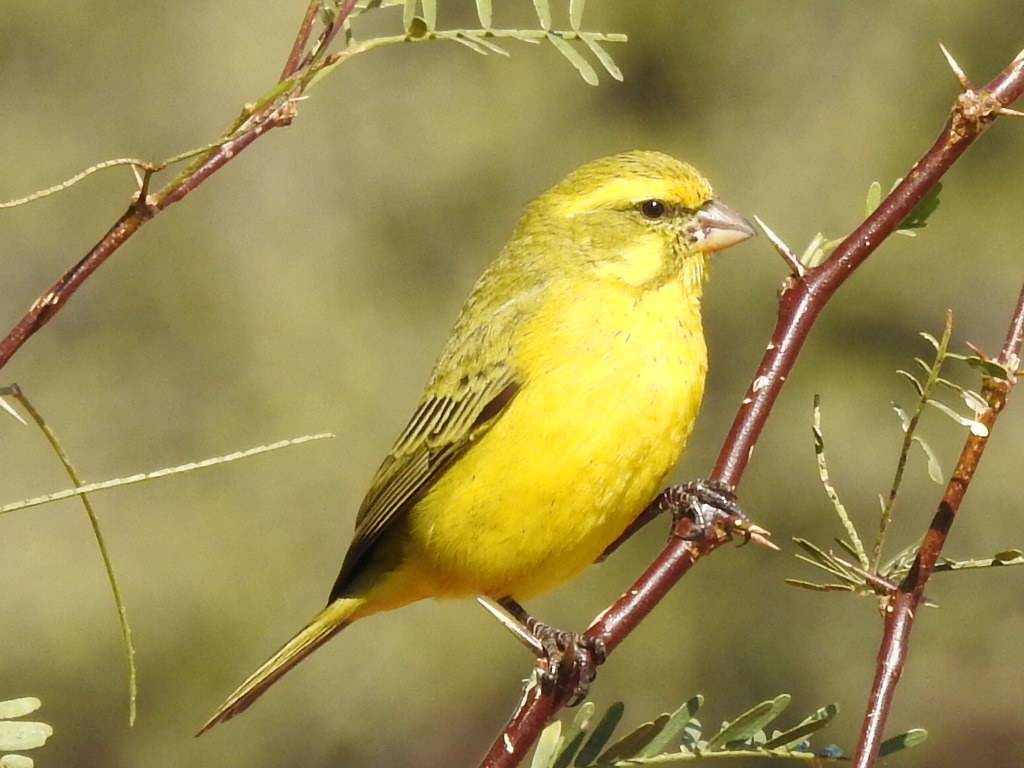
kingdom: Animalia
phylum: Chordata
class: Aves
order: Passeriformes
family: Fringillidae
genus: Crithagra
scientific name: Crithagra flaviventris
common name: Yellow canary
